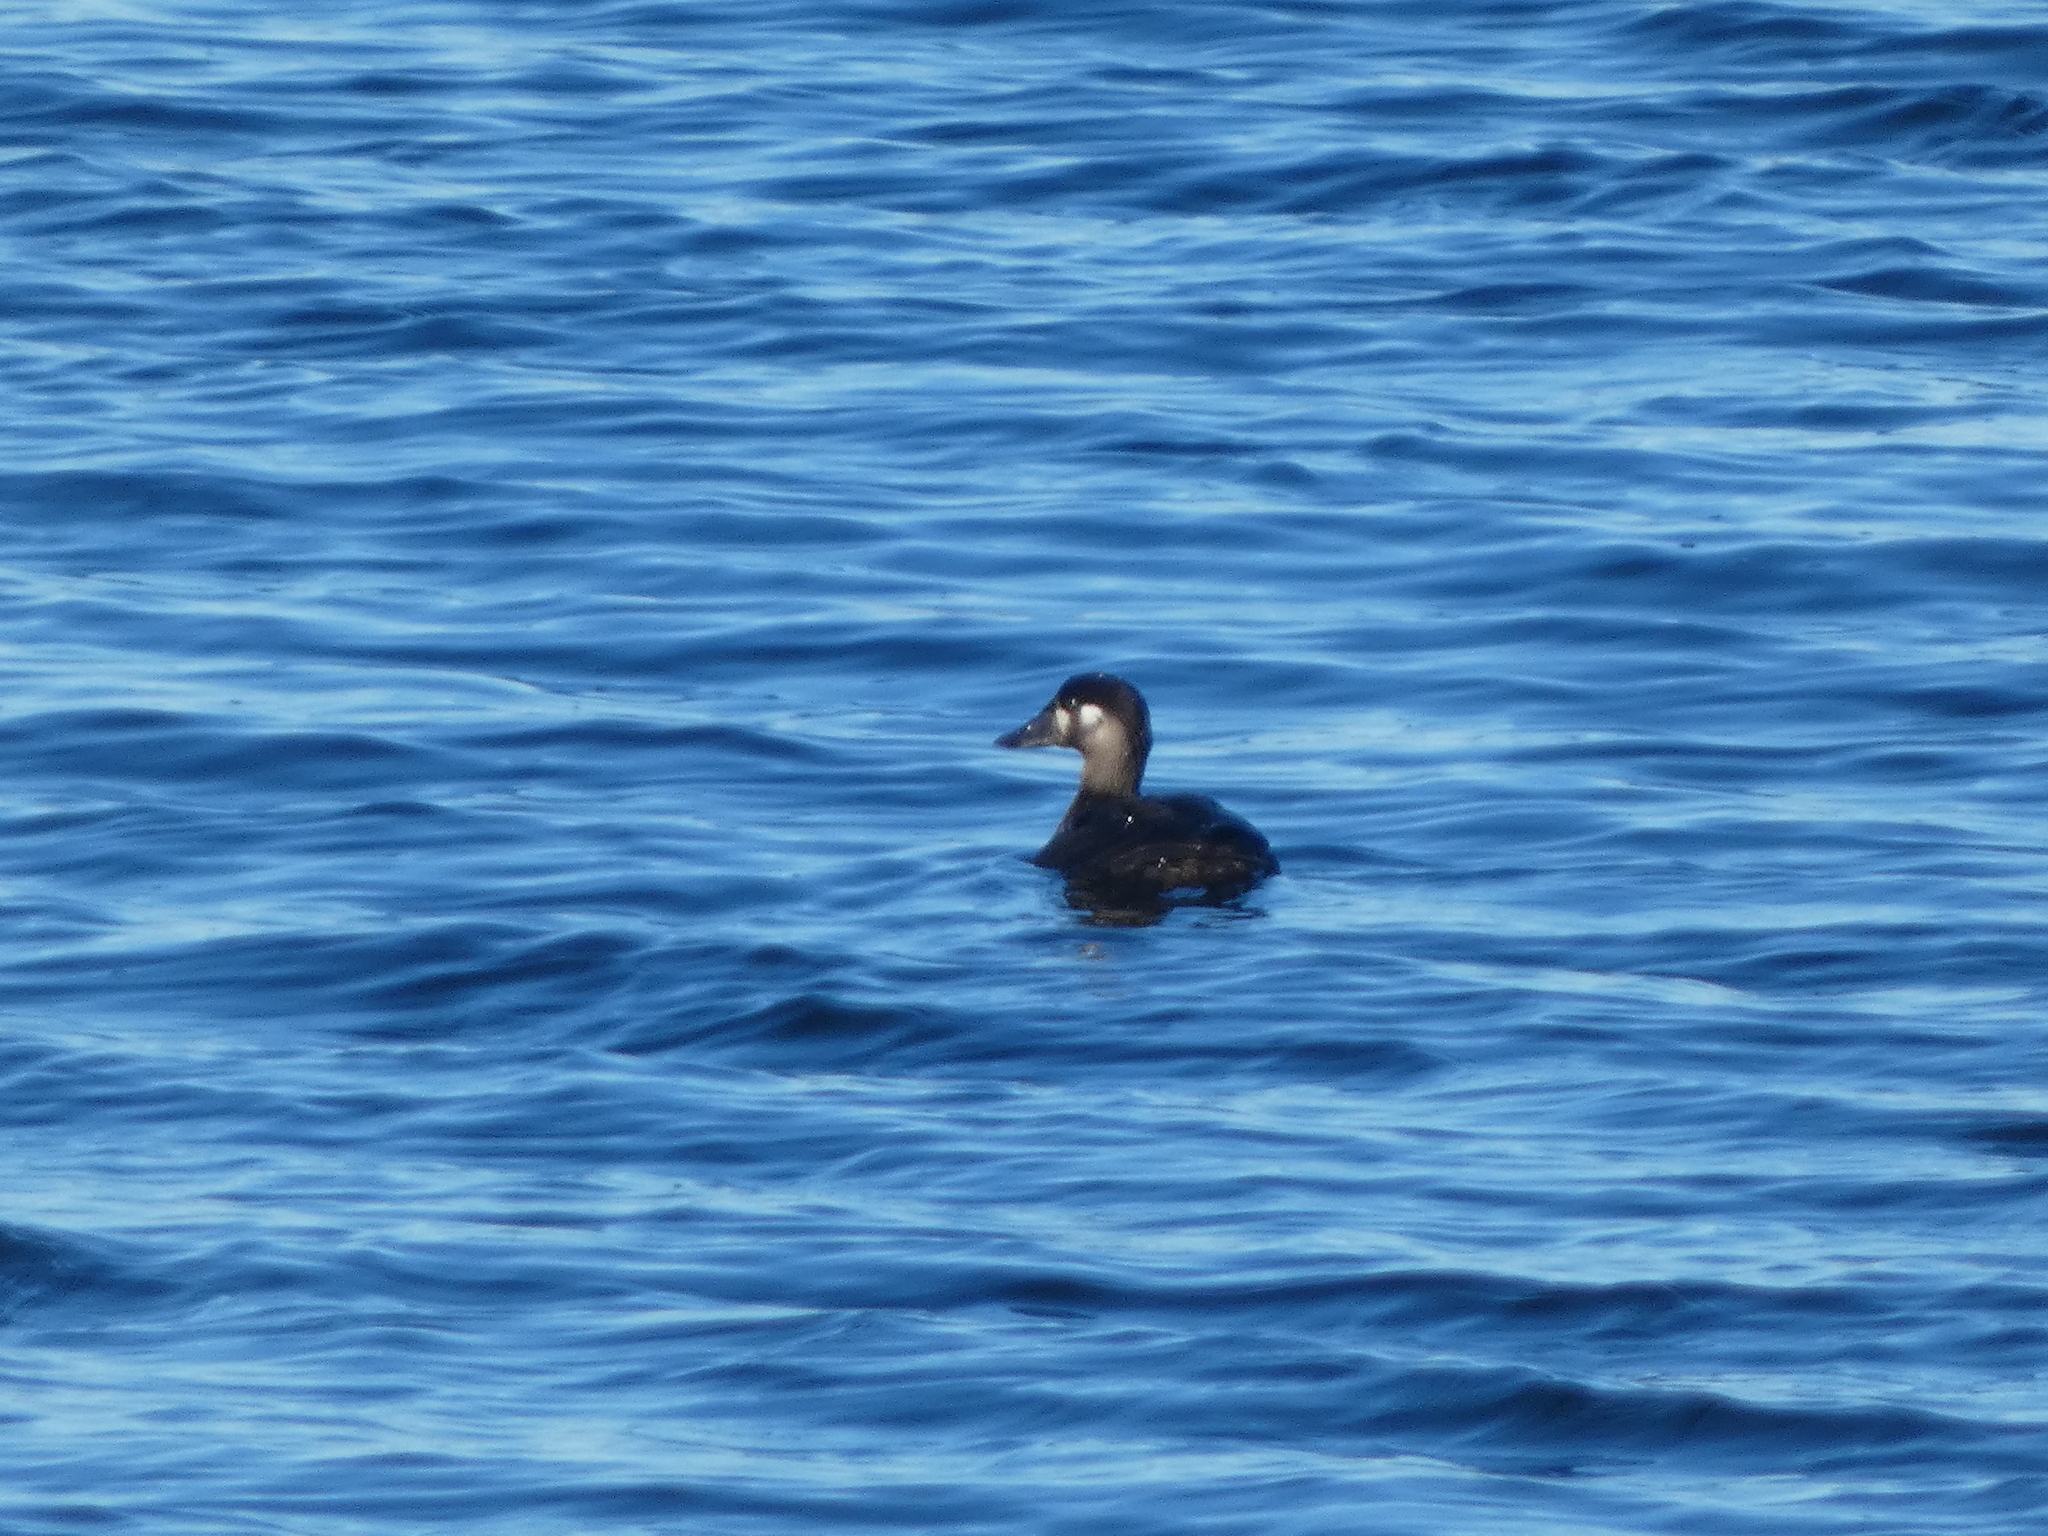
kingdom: Animalia
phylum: Chordata
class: Aves
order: Anseriformes
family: Anatidae
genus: Melanitta
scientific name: Melanitta perspicillata
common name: Surf scoter
